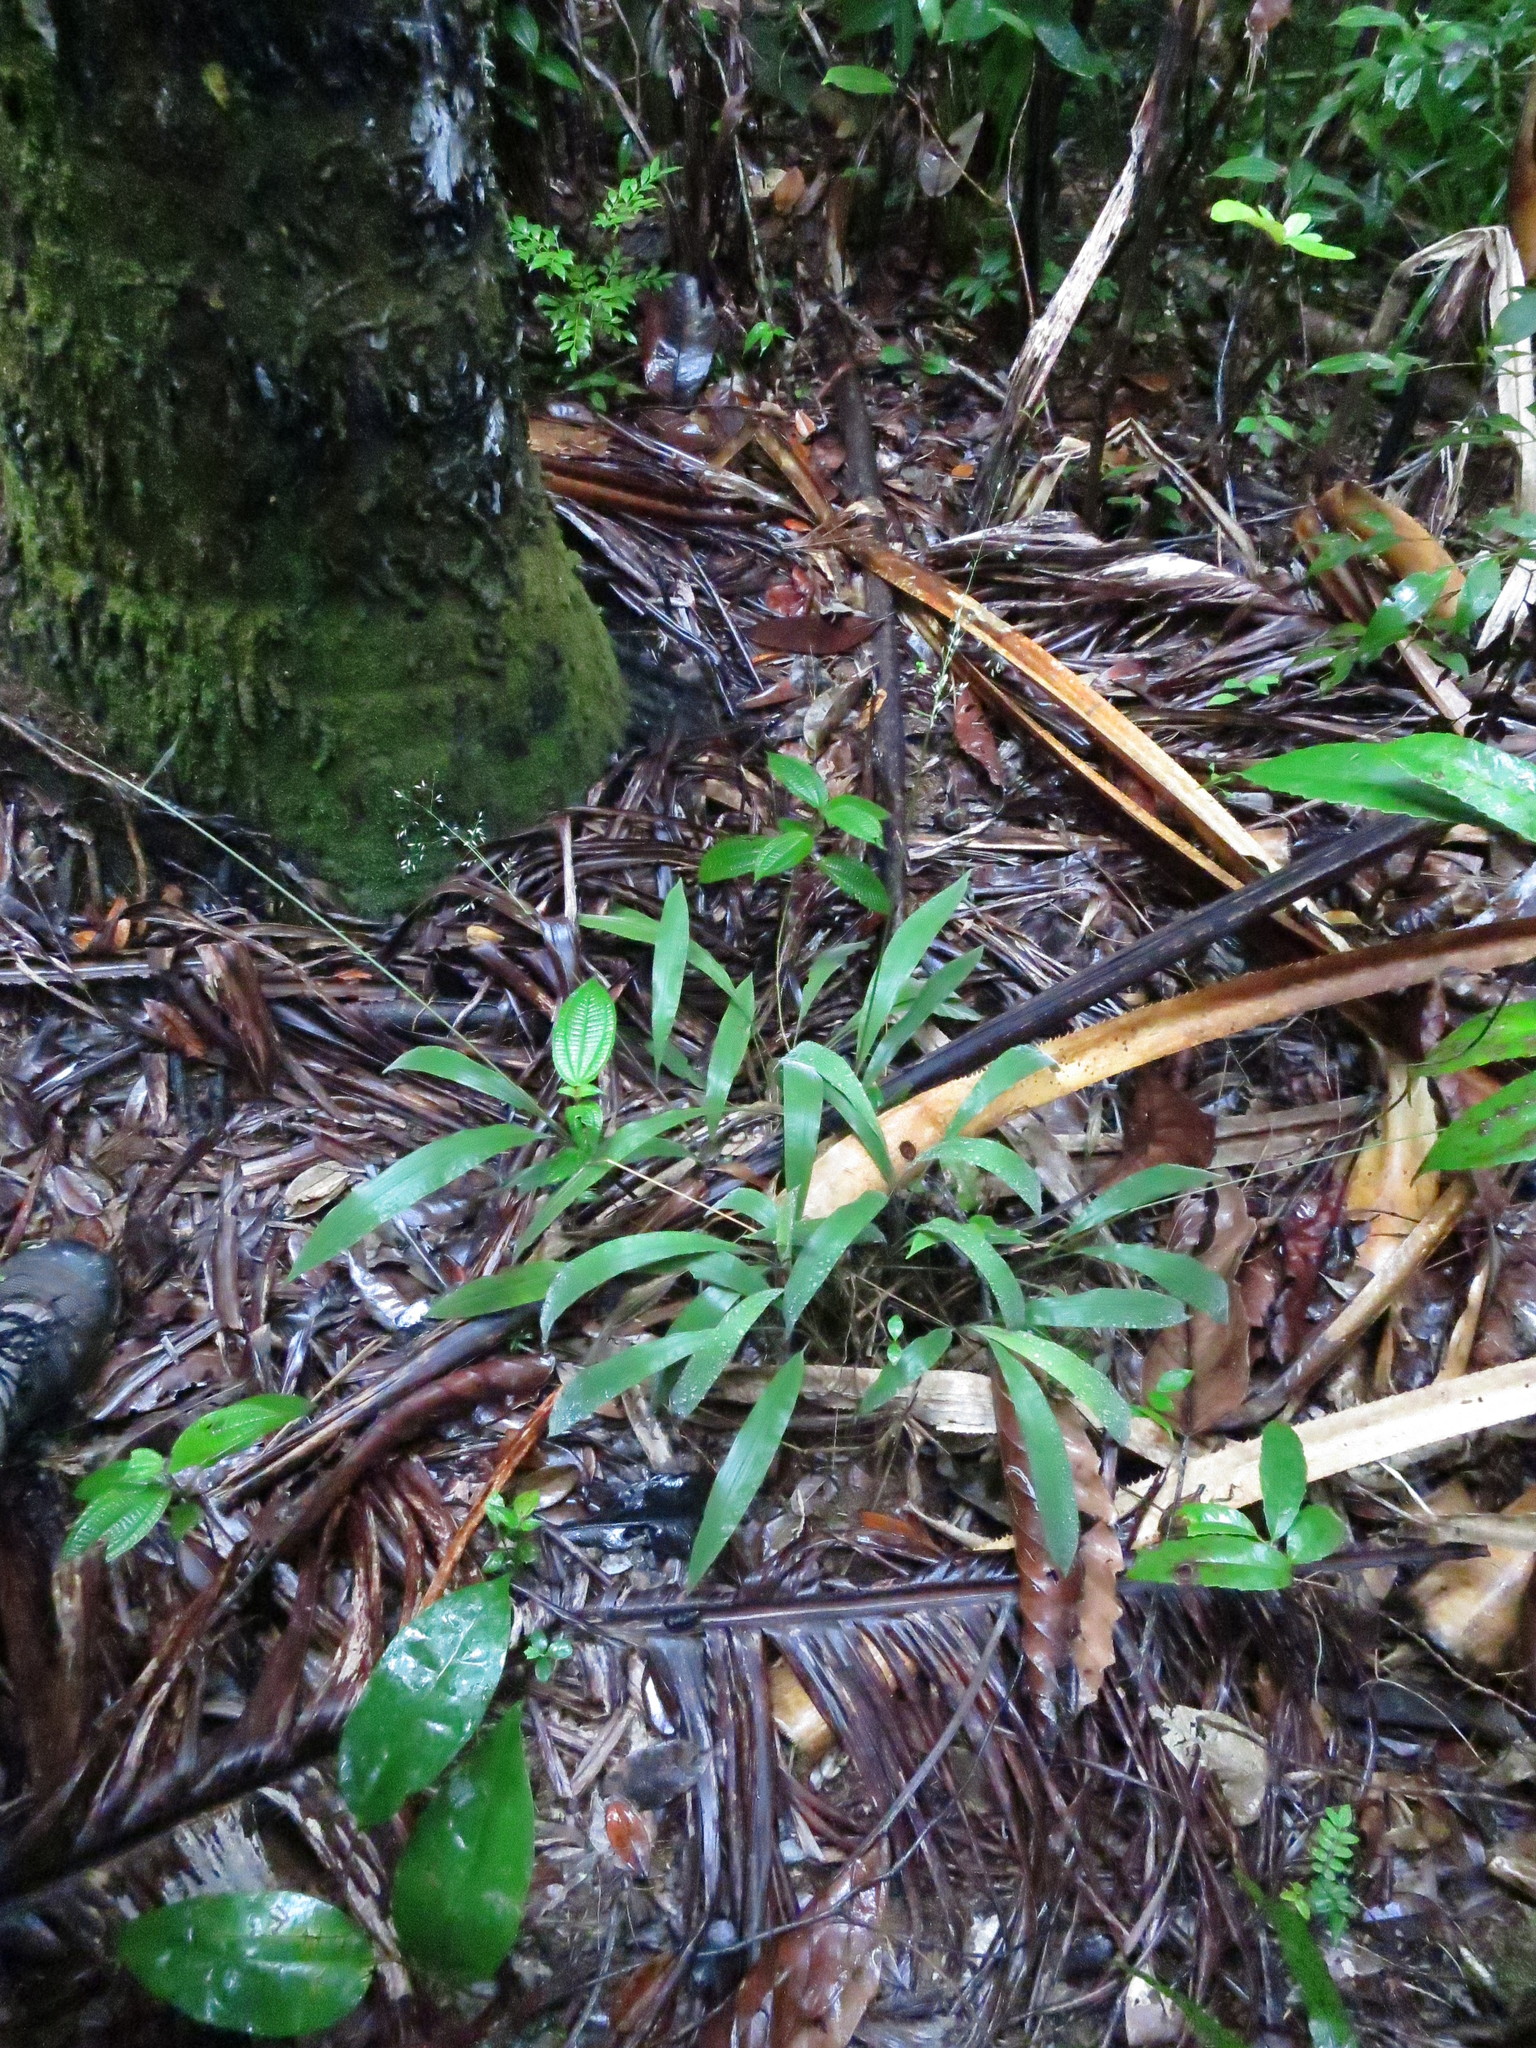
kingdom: Plantae
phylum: Tracheophyta
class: Liliopsida
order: Poales
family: Poaceae
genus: Maltebrunia
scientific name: Maltebrunia leersioides
